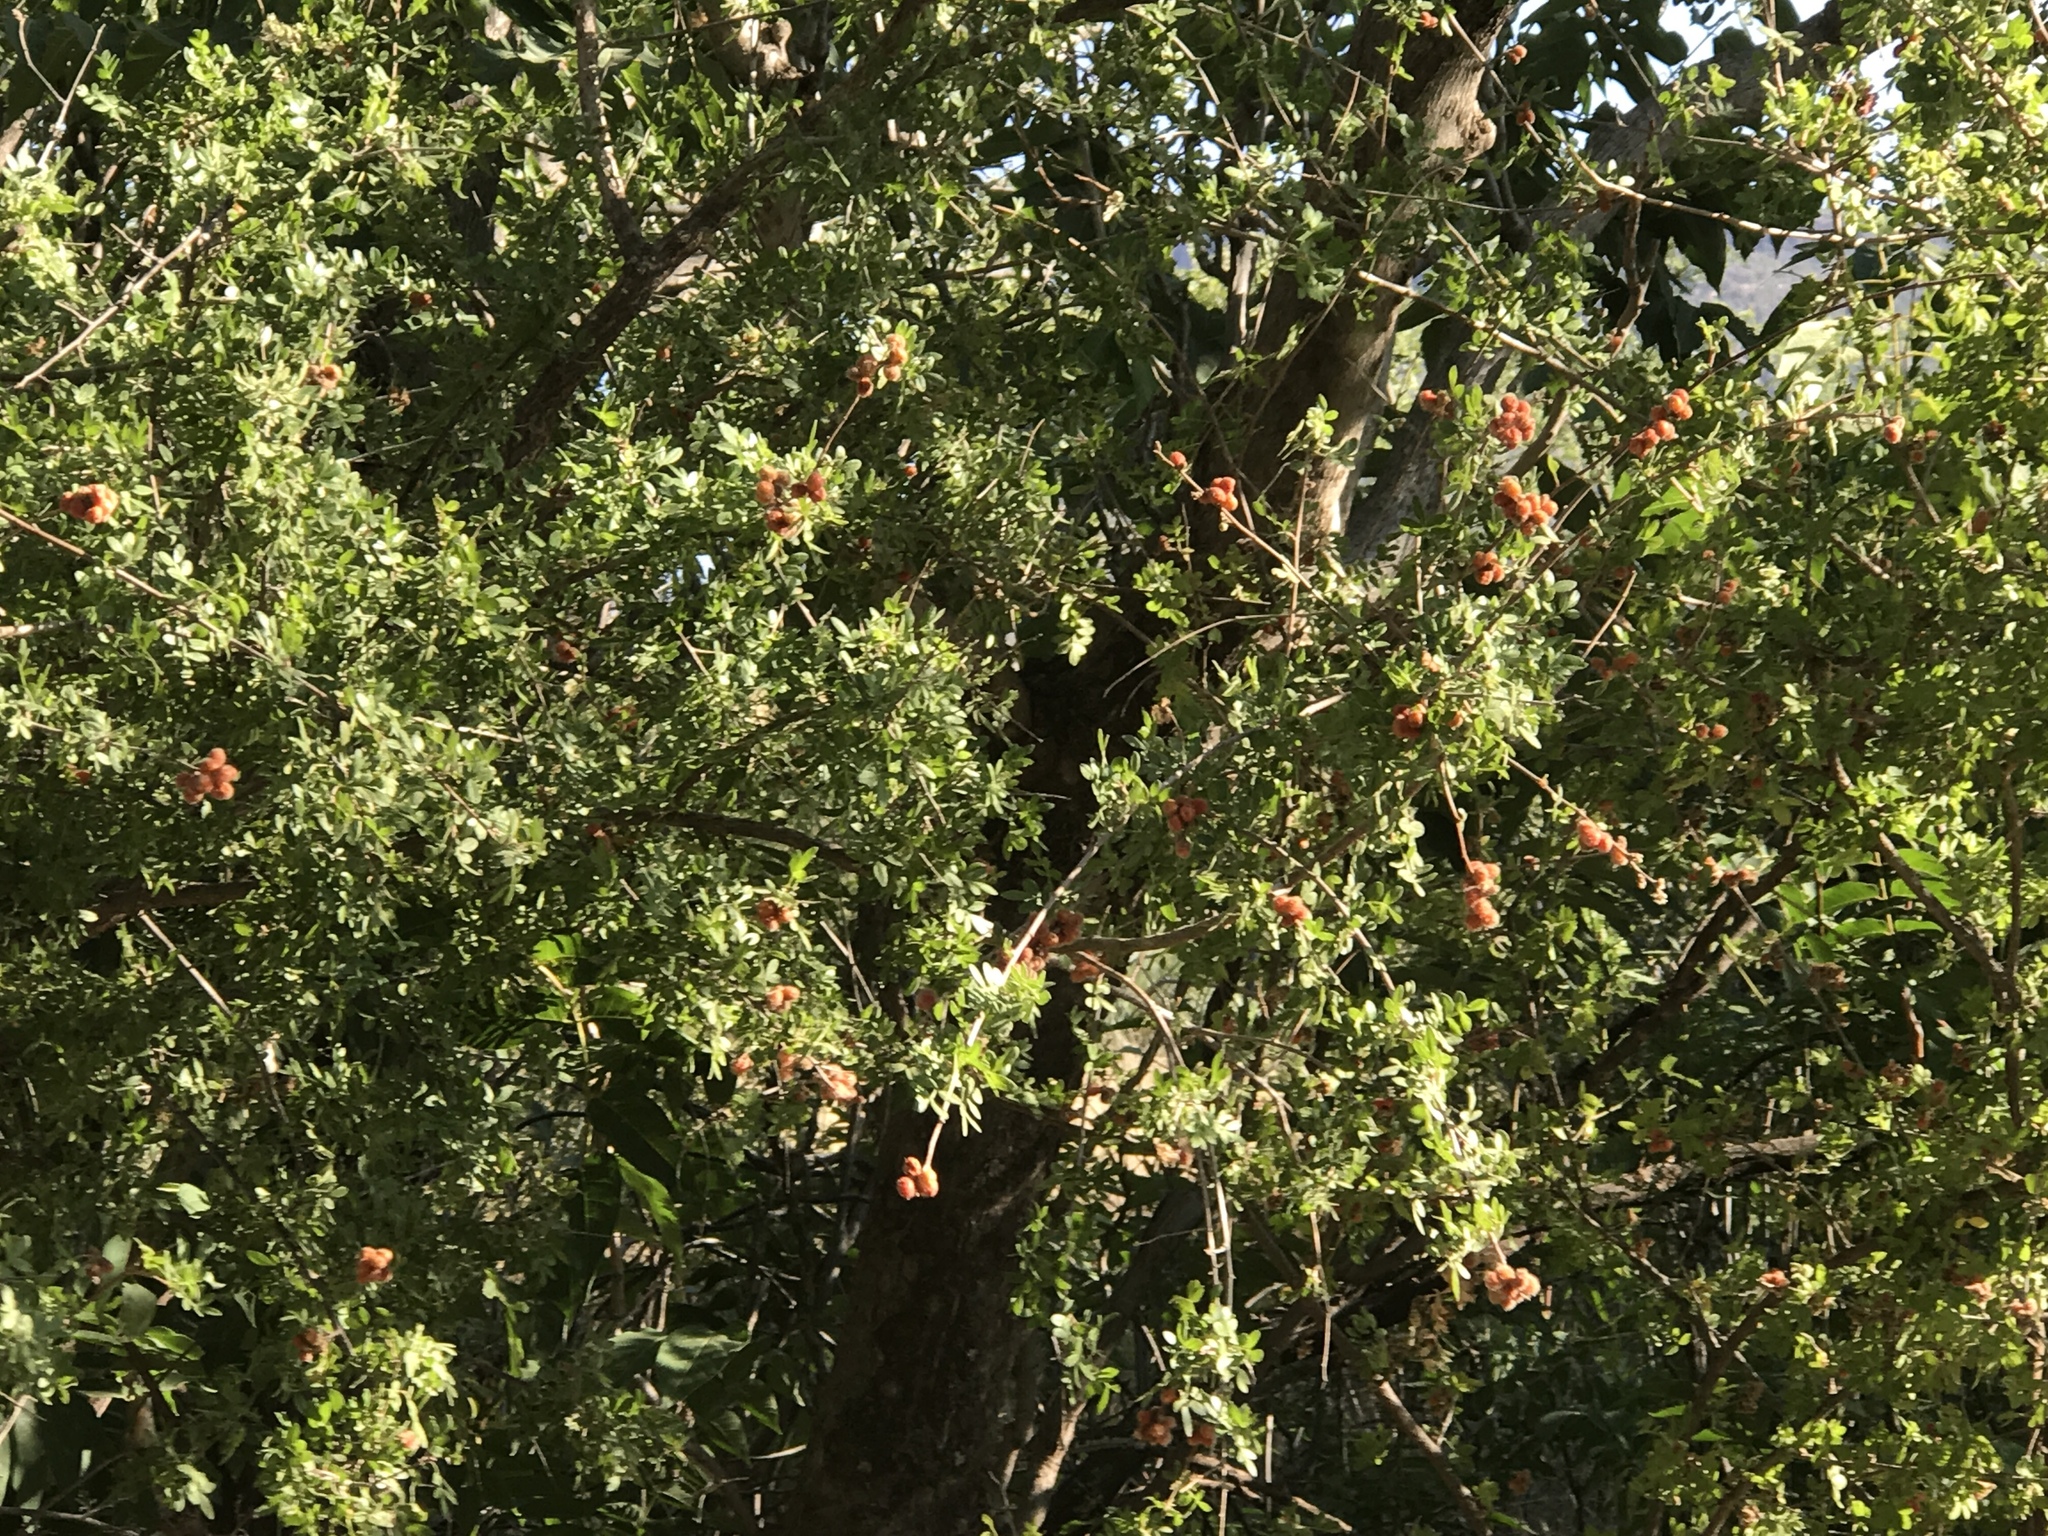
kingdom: Plantae
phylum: Tracheophyta
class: Magnoliopsida
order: Sapindales
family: Anacardiaceae
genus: Rhus
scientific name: Rhus microphylla
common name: Desert sumac
